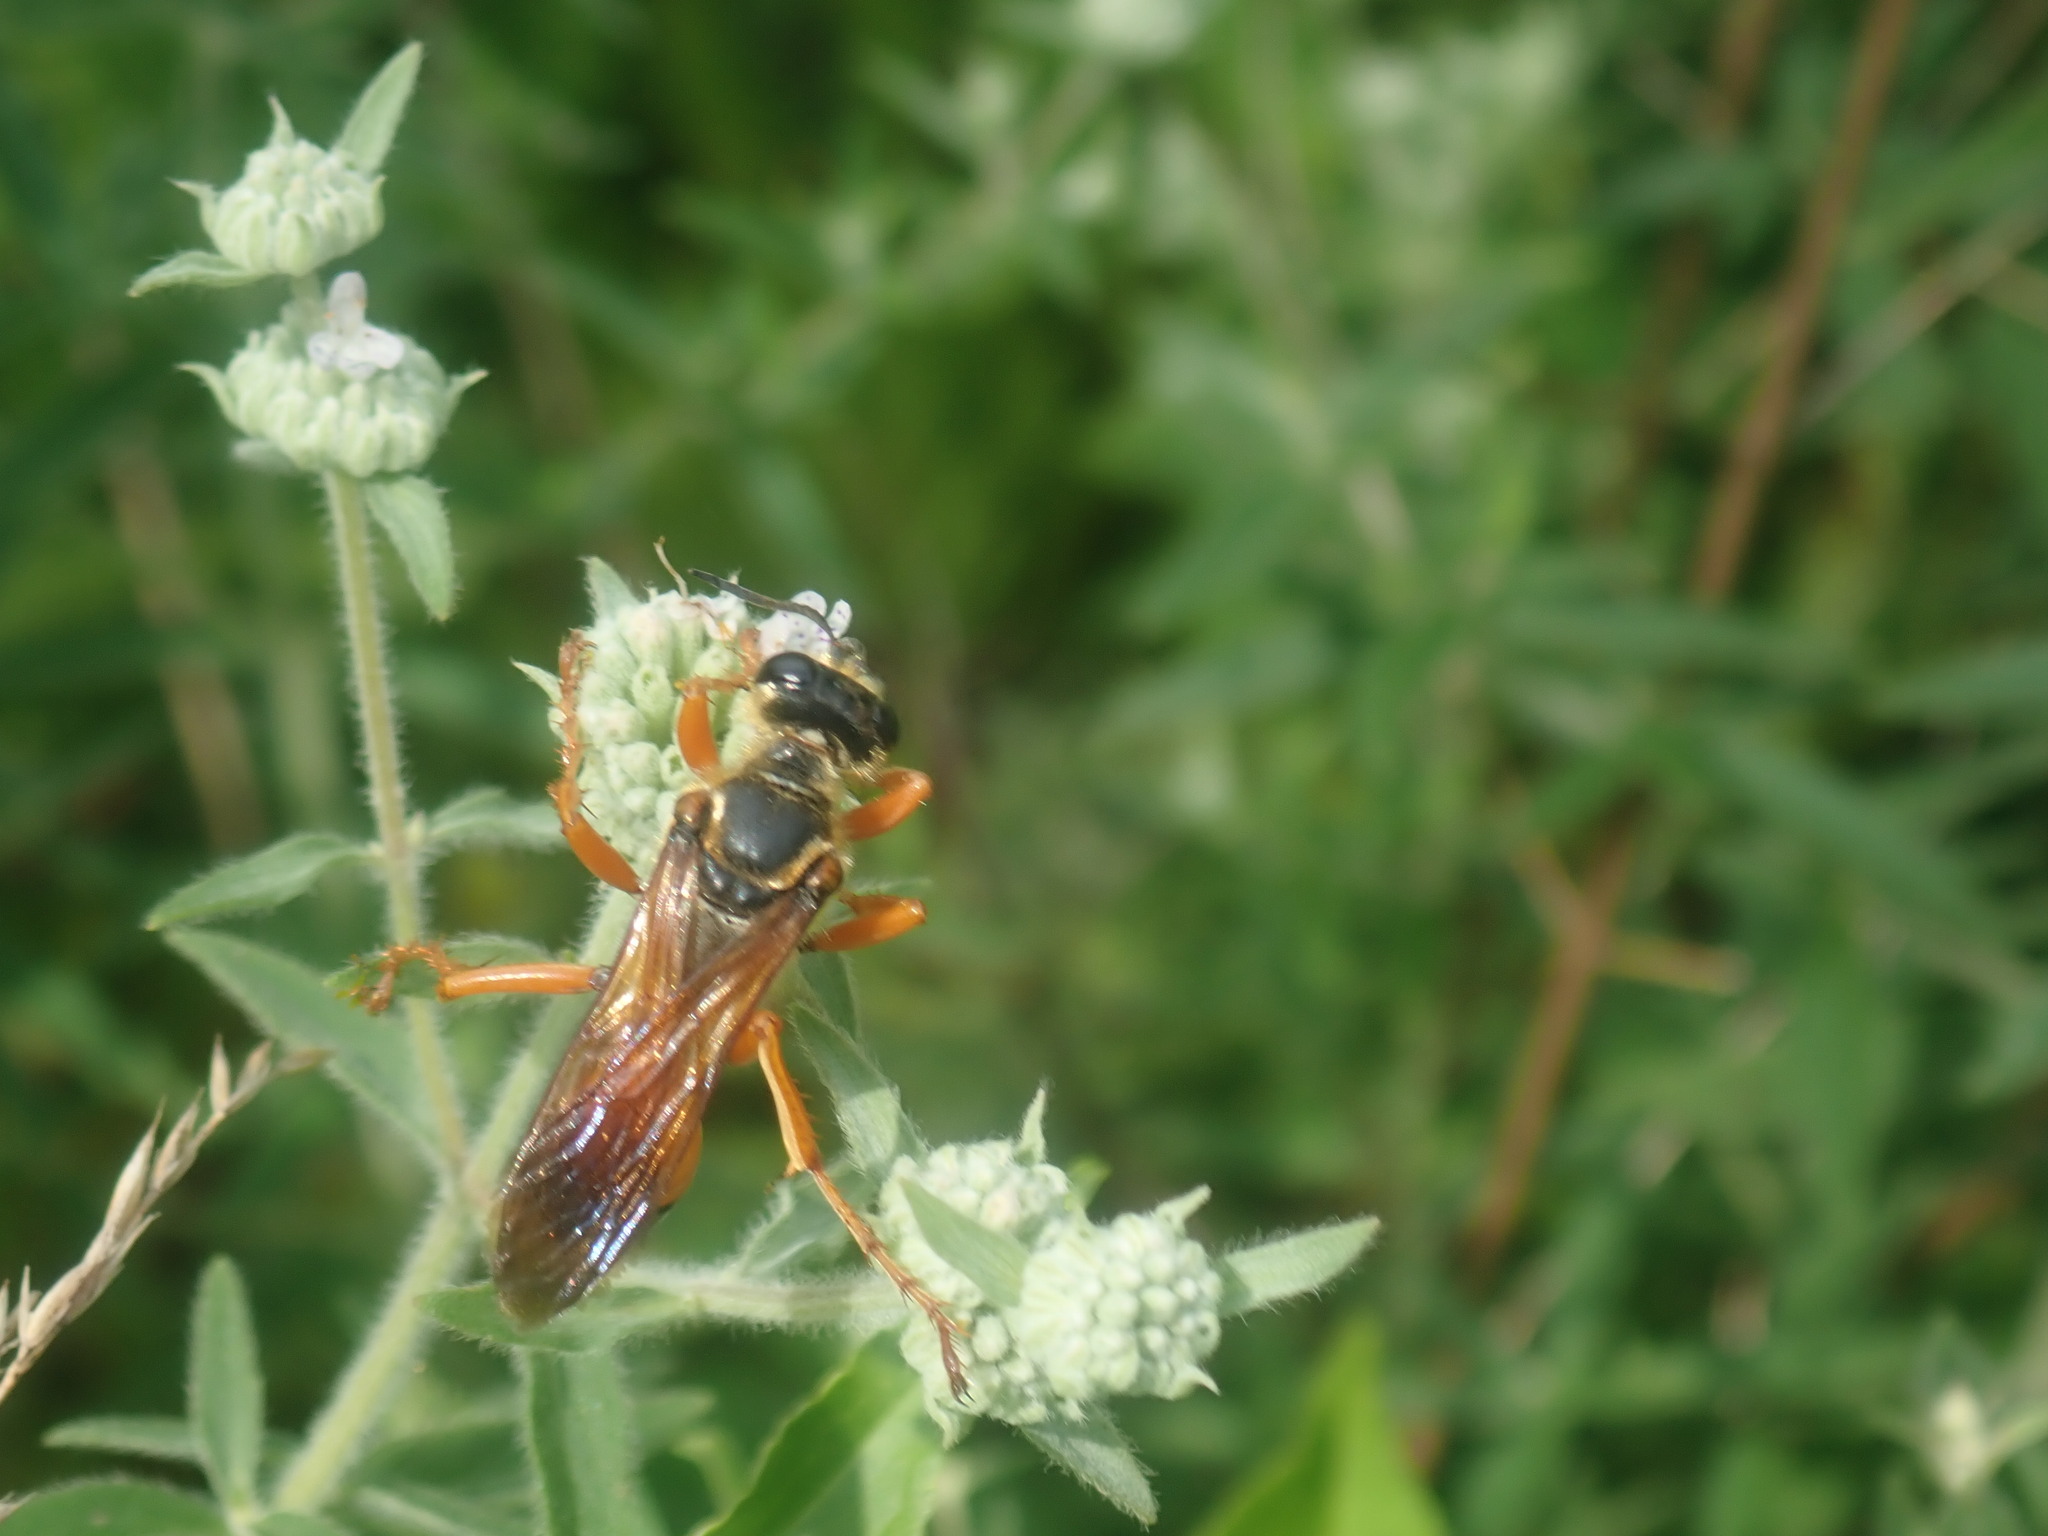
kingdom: Animalia
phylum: Arthropoda
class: Insecta
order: Hymenoptera
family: Sphecidae
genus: Sphex
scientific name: Sphex ichneumoneus
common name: Great golden digger wasp
